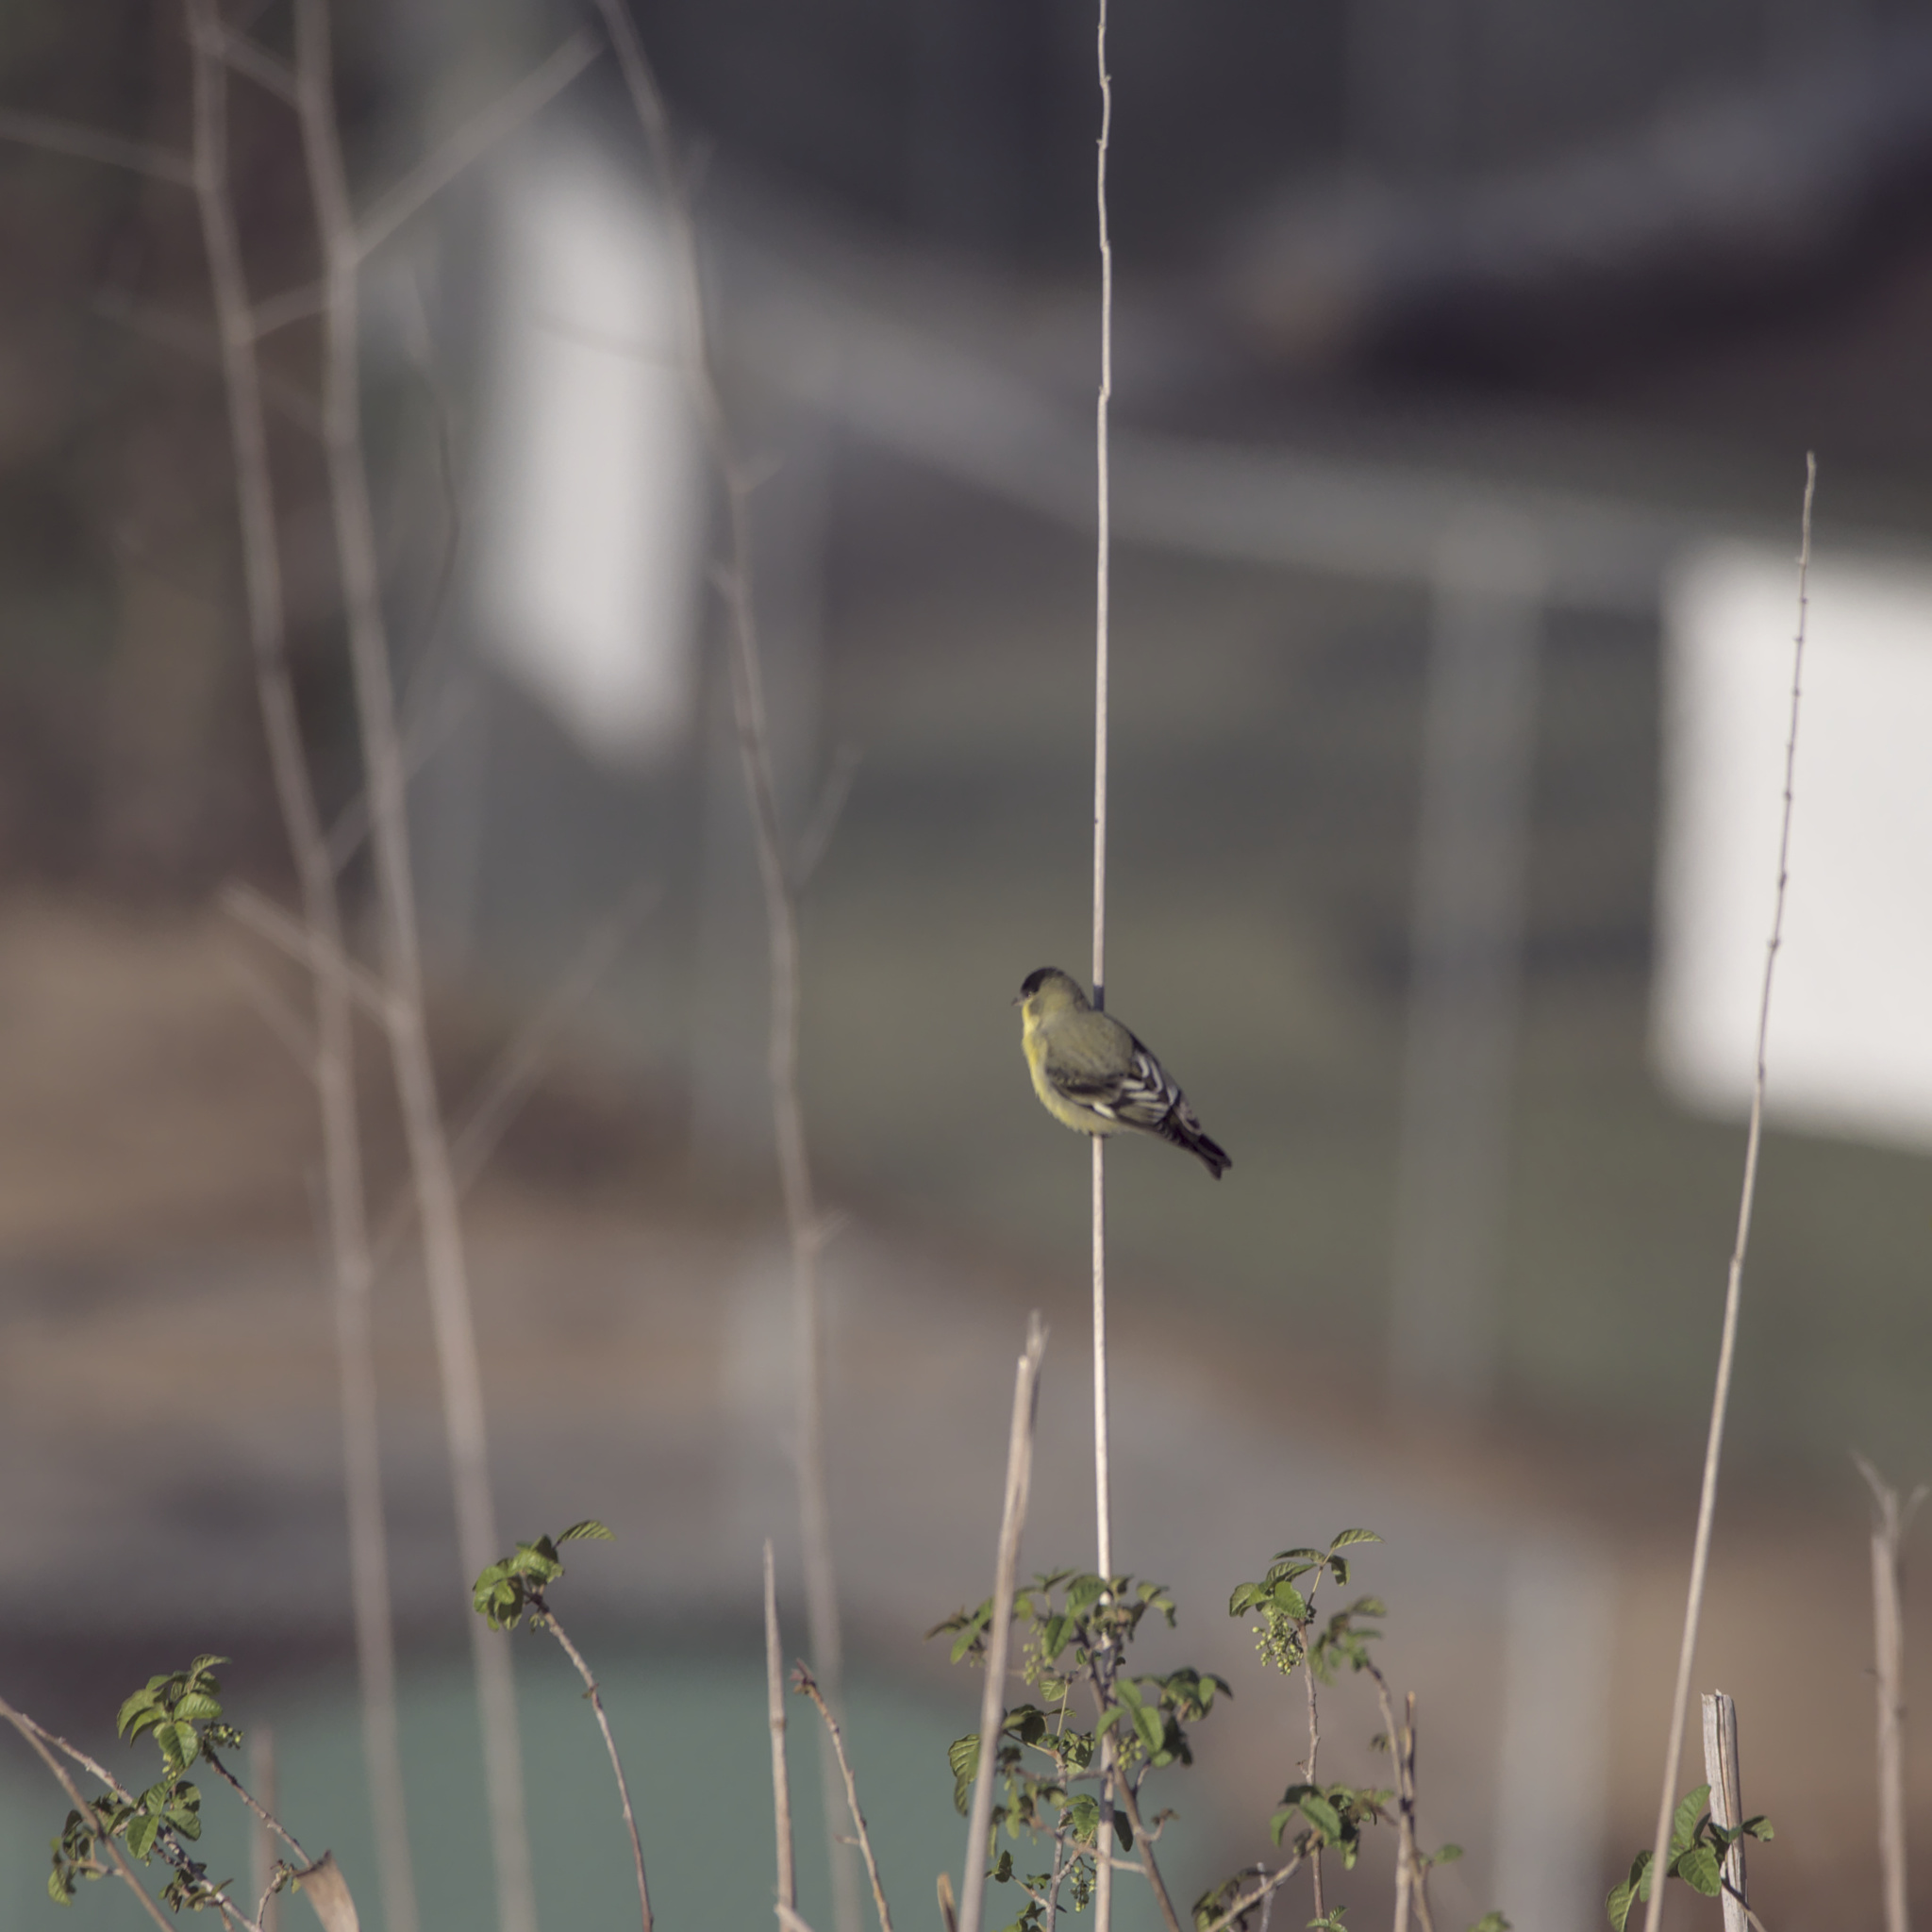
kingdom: Animalia
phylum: Chordata
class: Aves
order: Passeriformes
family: Fringillidae
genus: Spinus
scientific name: Spinus psaltria
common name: Lesser goldfinch
